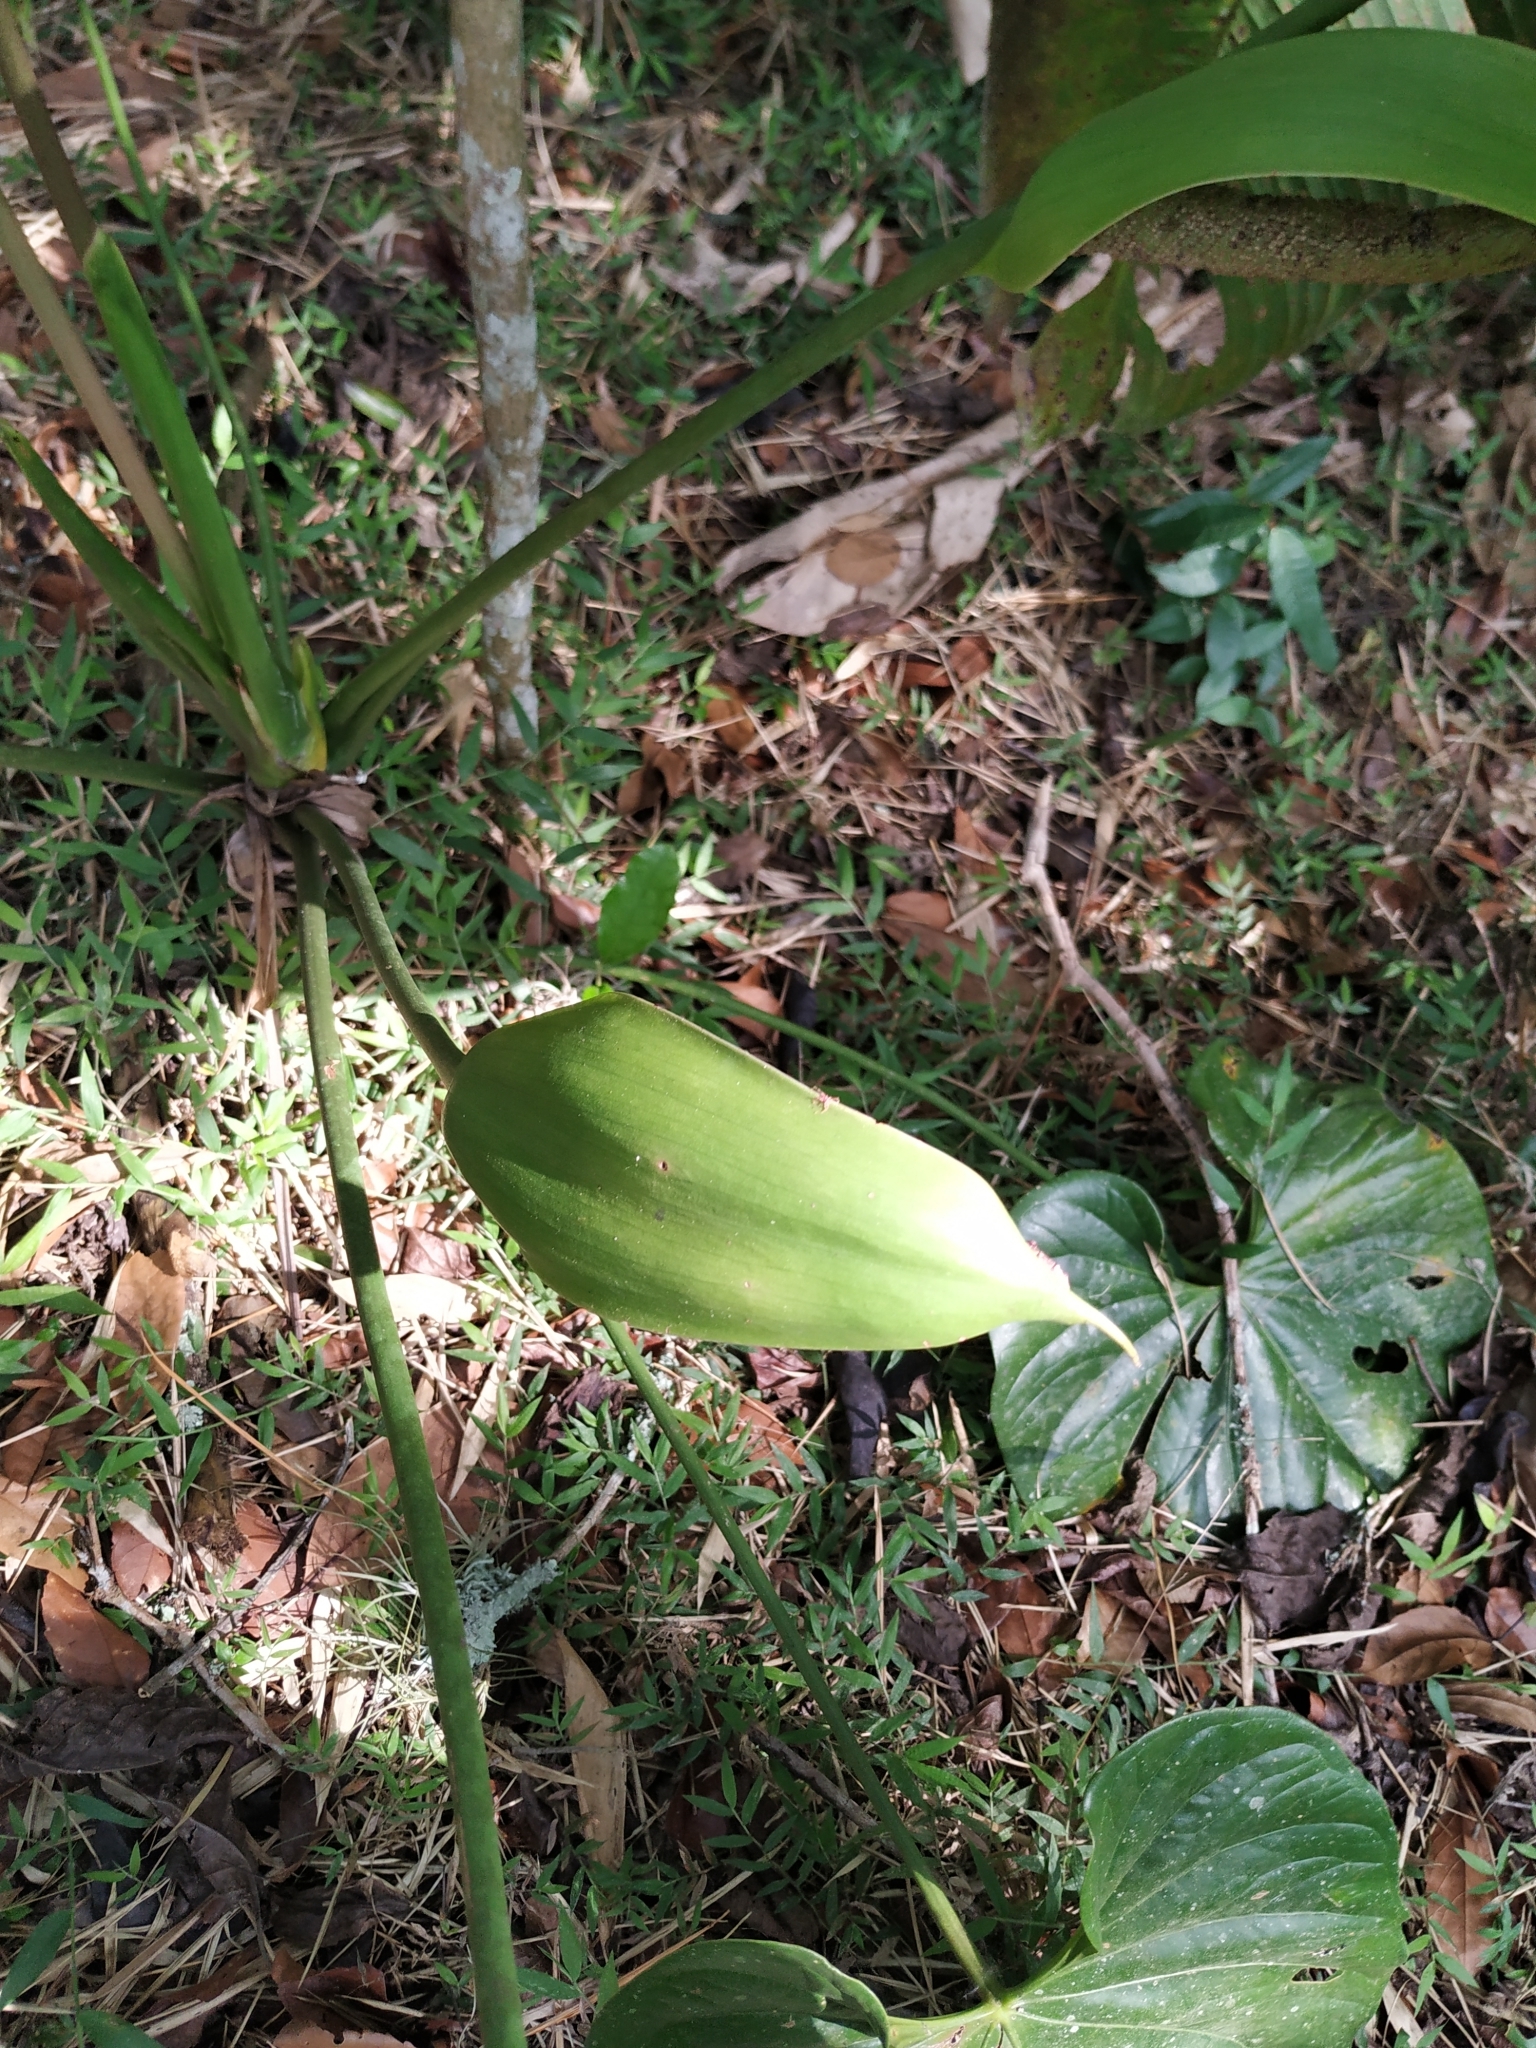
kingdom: Plantae
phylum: Tracheophyta
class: Liliopsida
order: Alismatales
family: Araceae
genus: Anthurium
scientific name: Anthurium formosum
